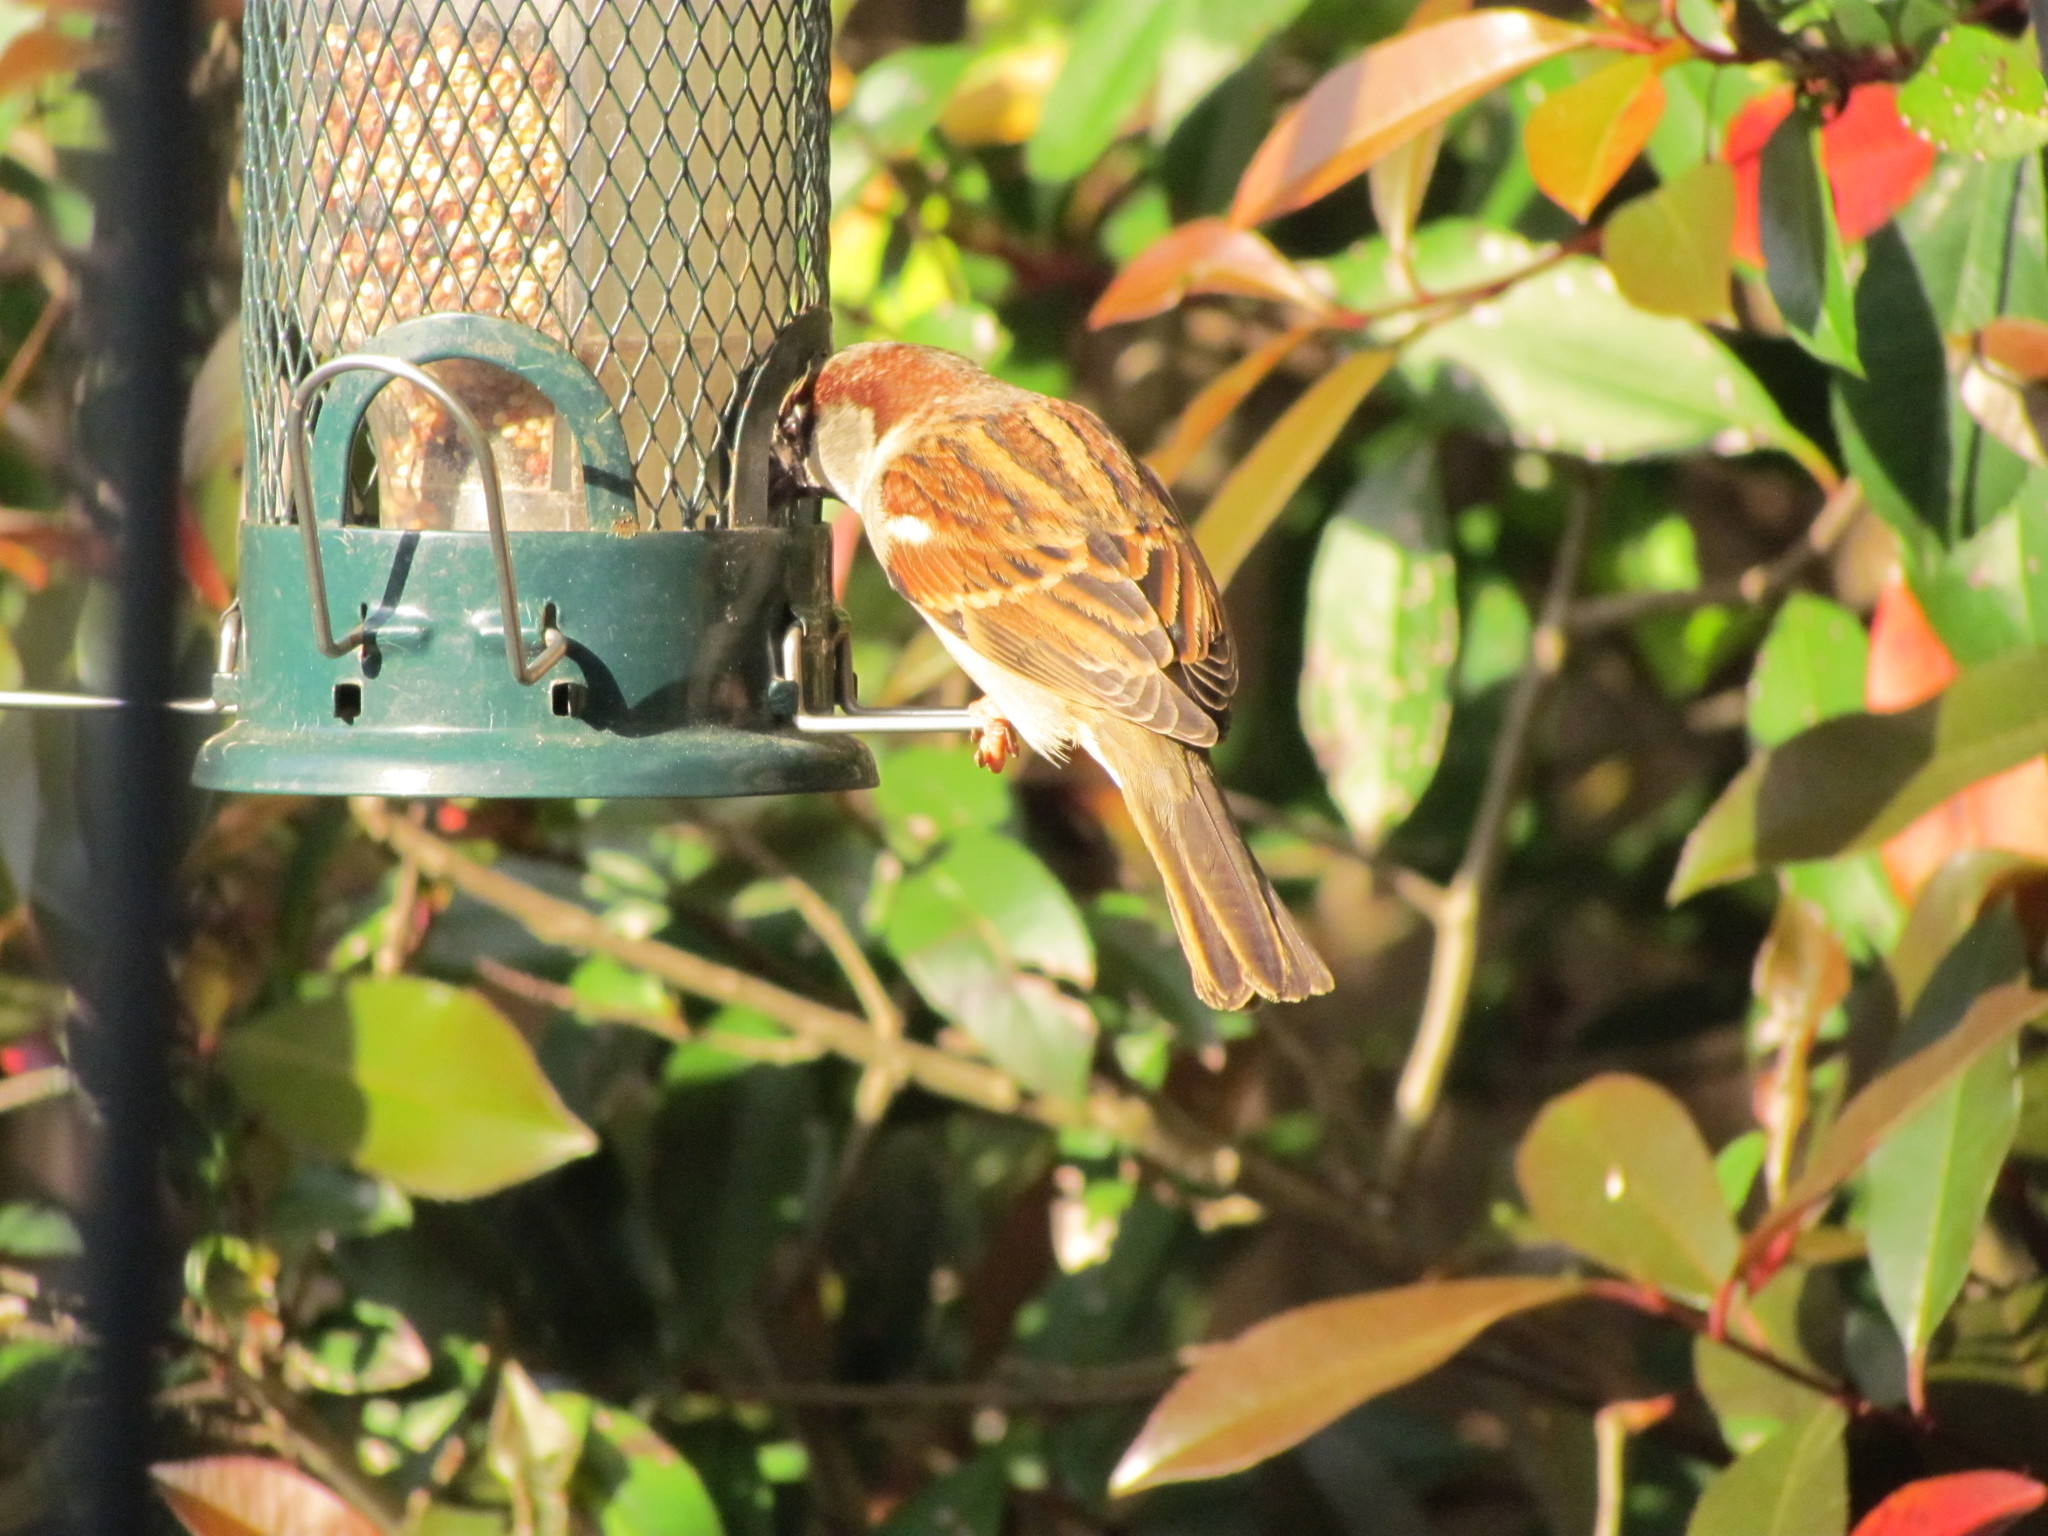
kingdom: Animalia
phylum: Chordata
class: Aves
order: Passeriformes
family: Passeridae
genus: Passer
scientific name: Passer domesticus
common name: House sparrow
